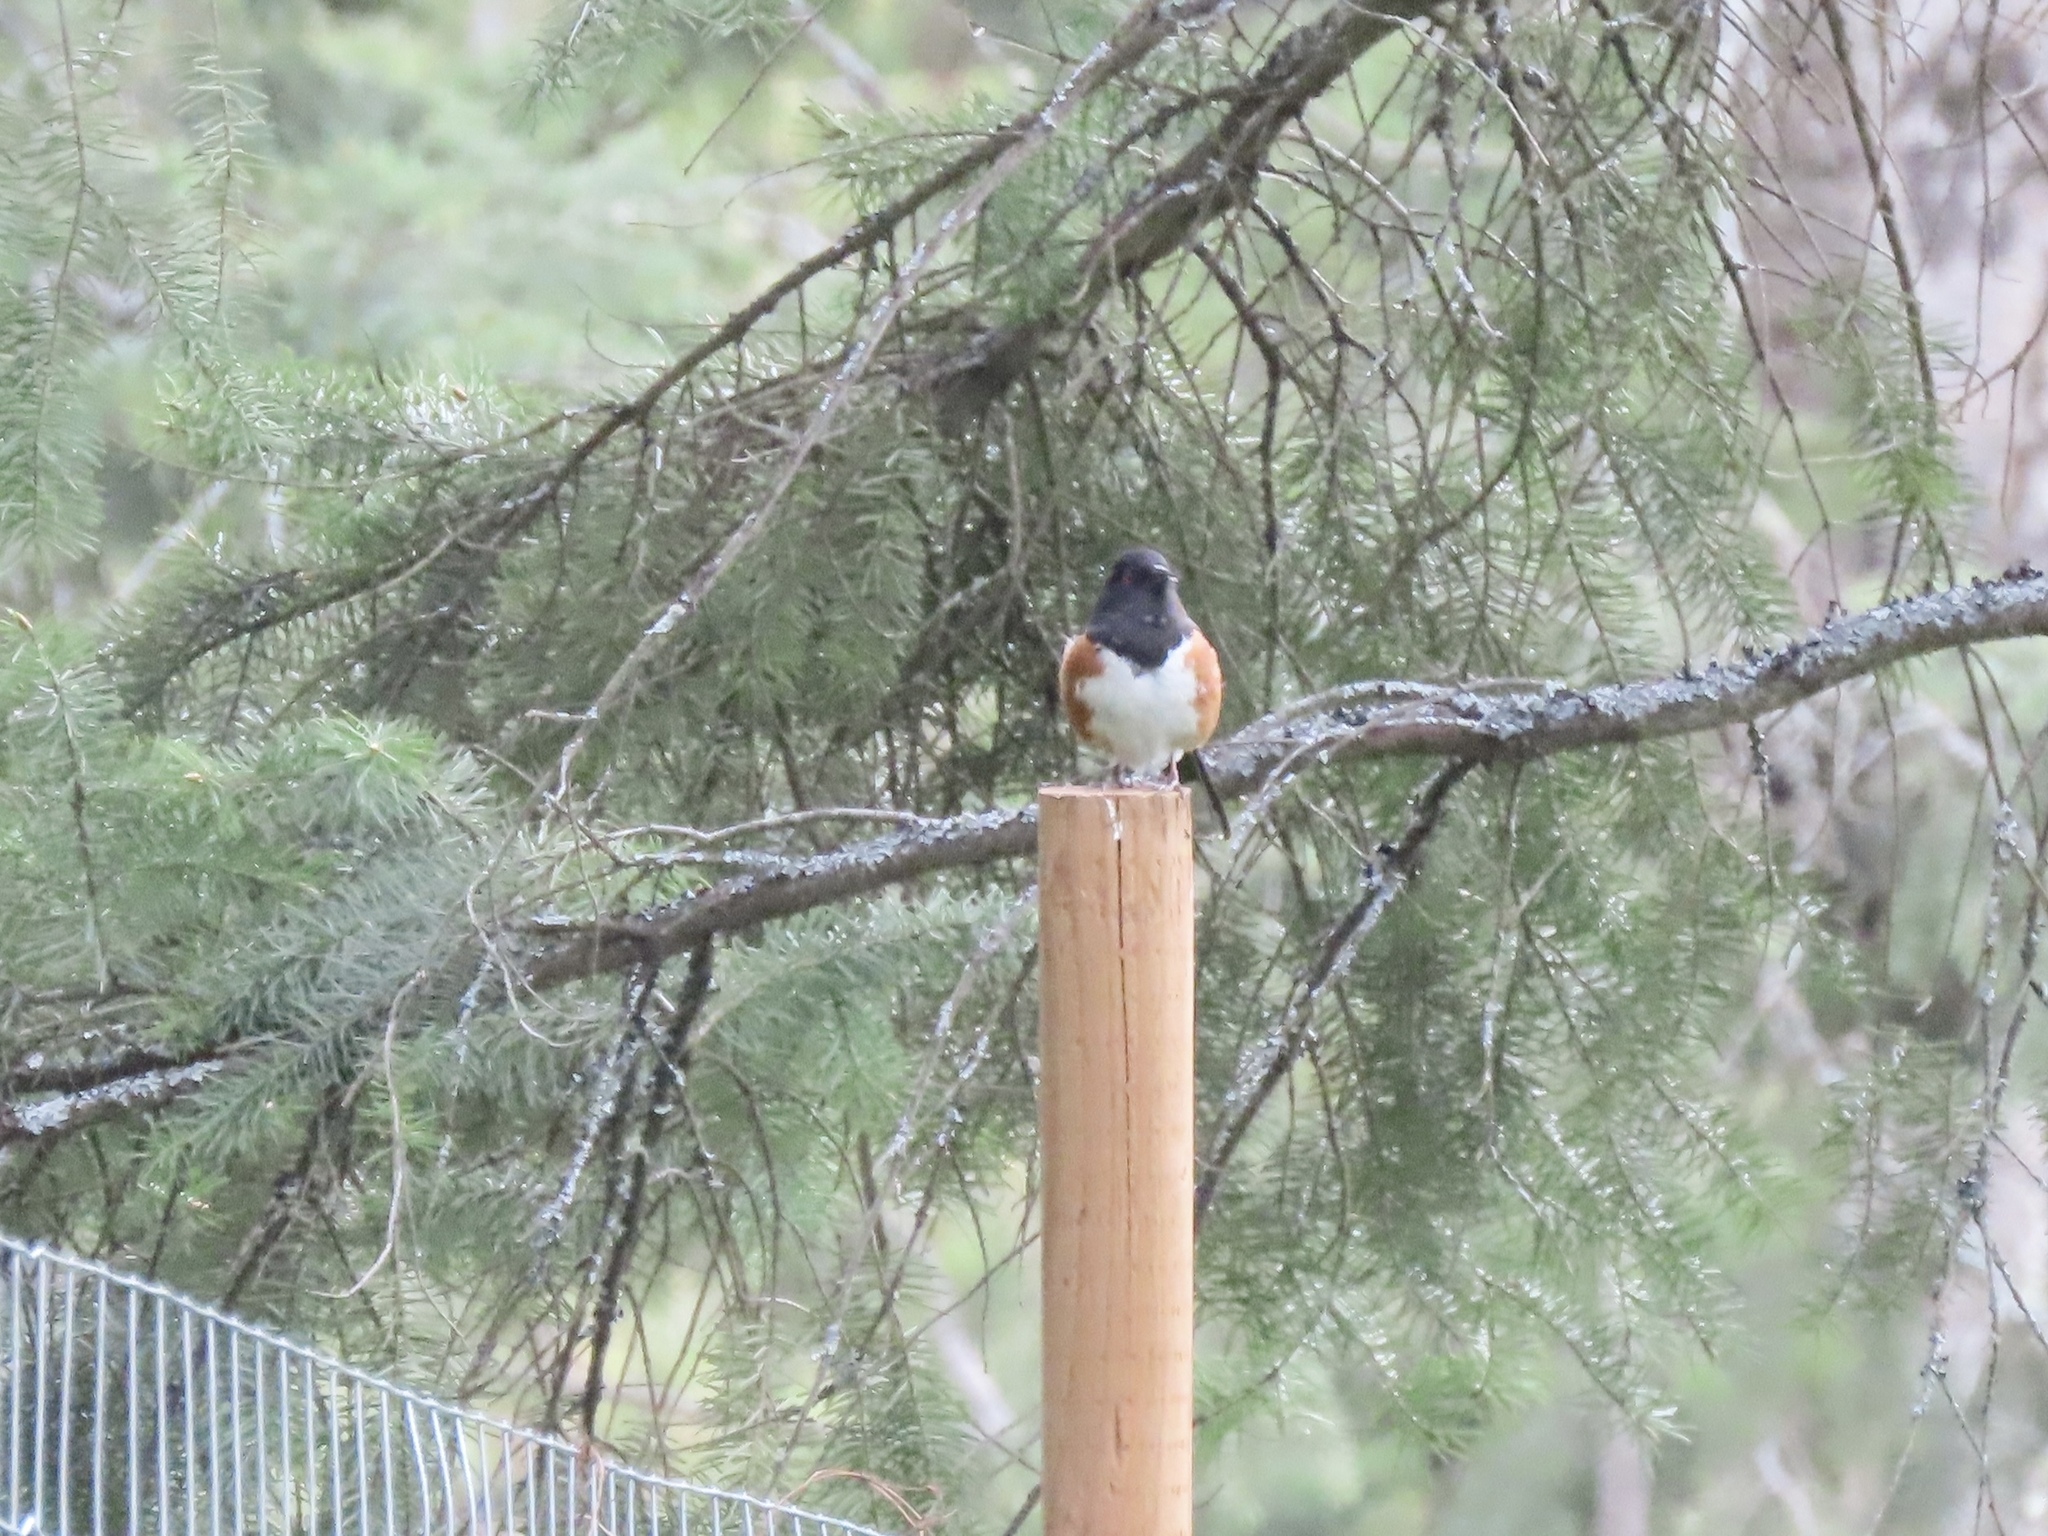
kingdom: Animalia
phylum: Chordata
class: Aves
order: Passeriformes
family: Passerellidae
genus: Pipilo
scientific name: Pipilo maculatus
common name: Spotted towhee
